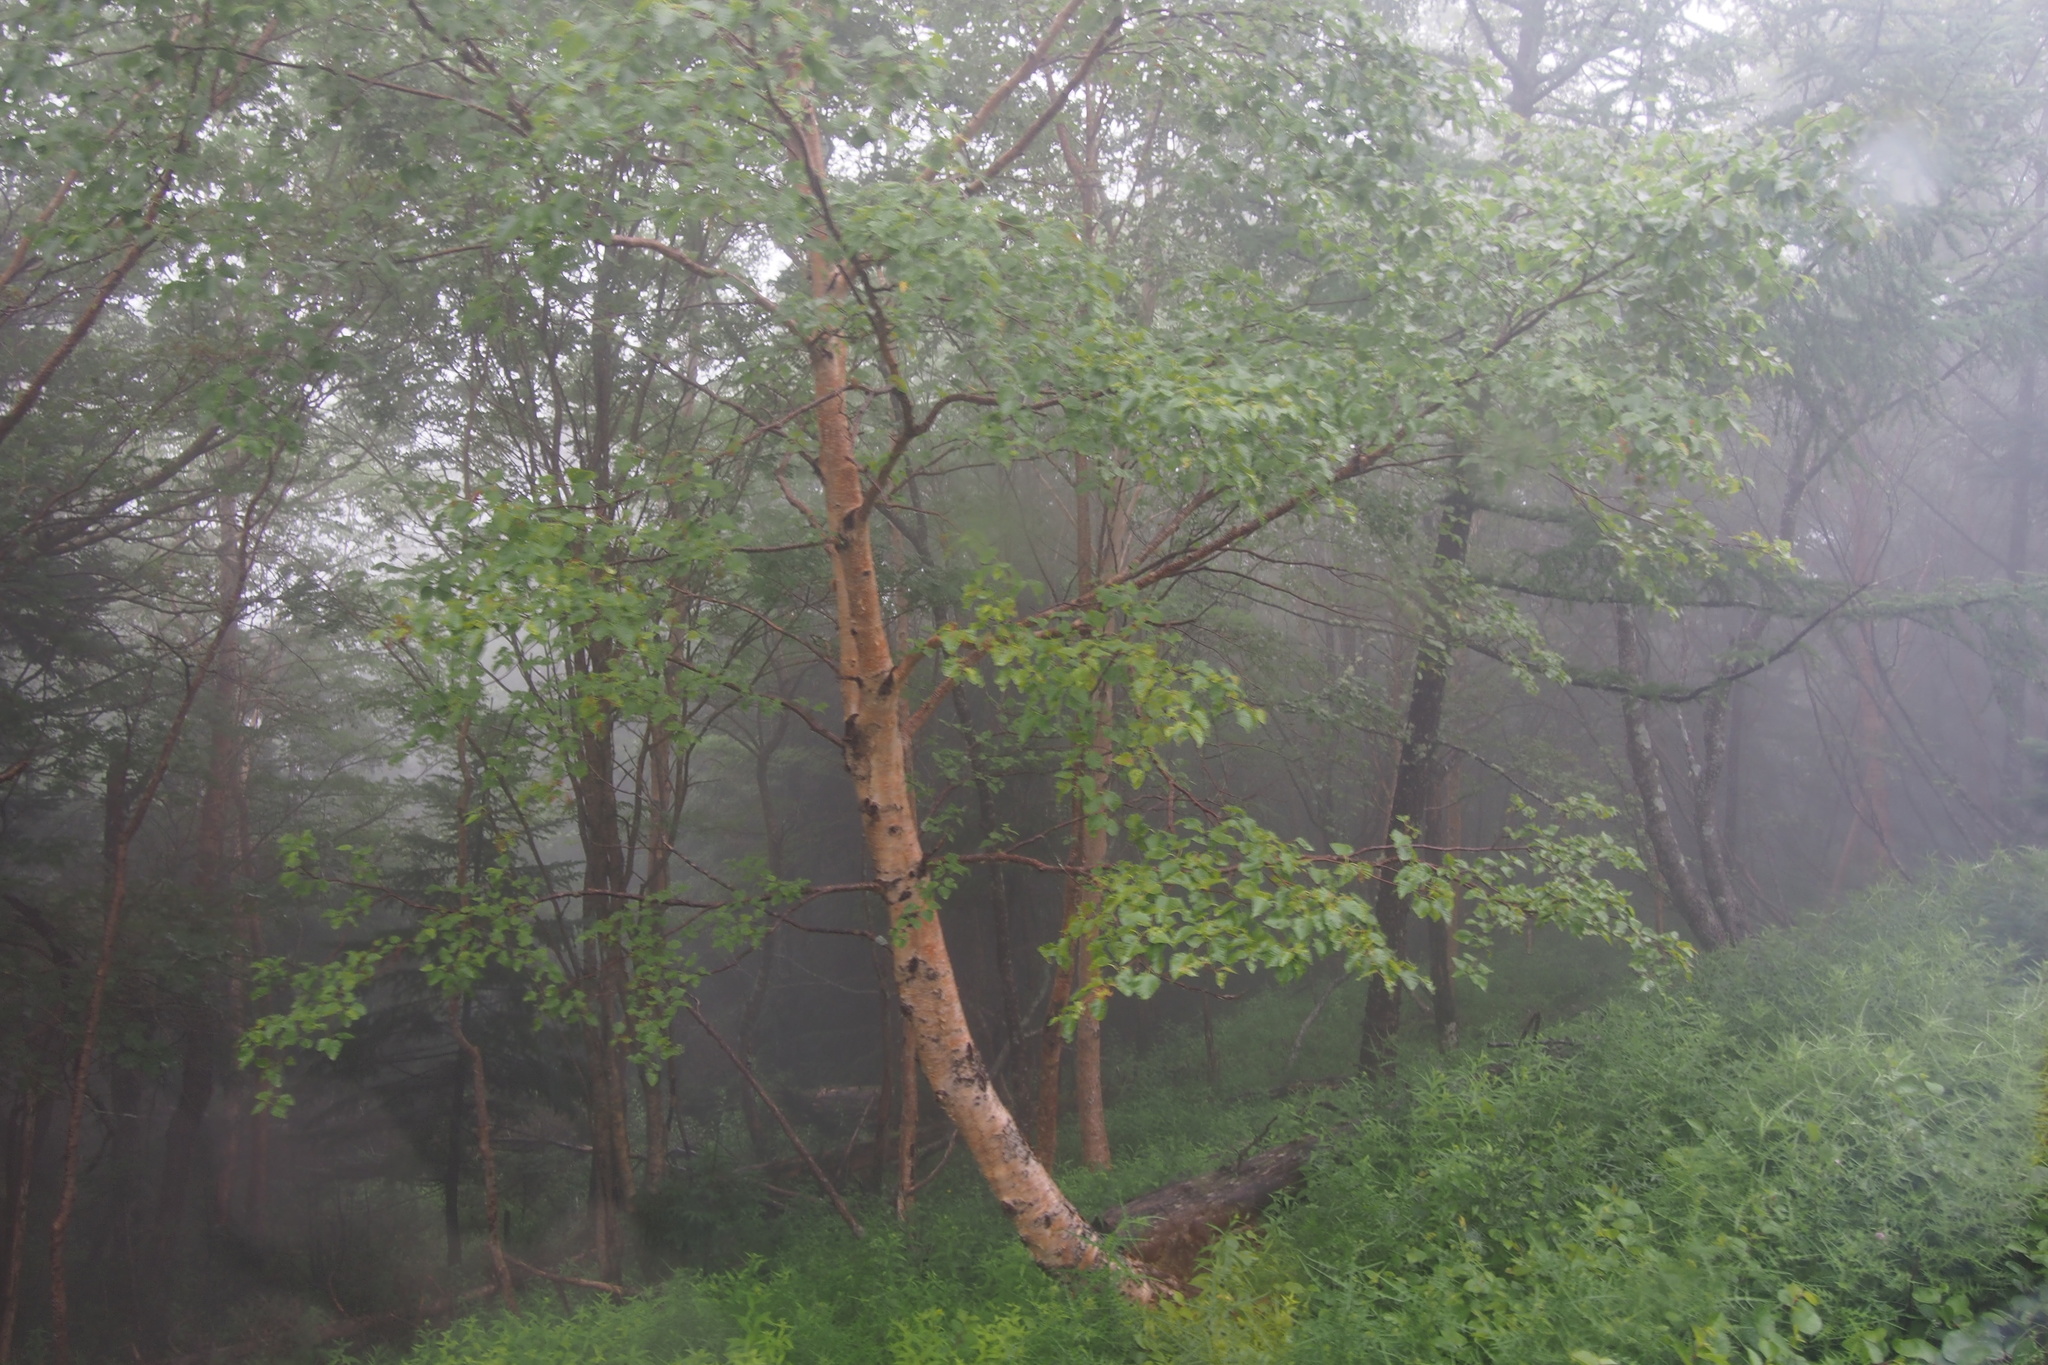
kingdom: Plantae
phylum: Tracheophyta
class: Magnoliopsida
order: Fagales
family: Betulaceae
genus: Betula
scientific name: Betula ermanii
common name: Erman's birch
